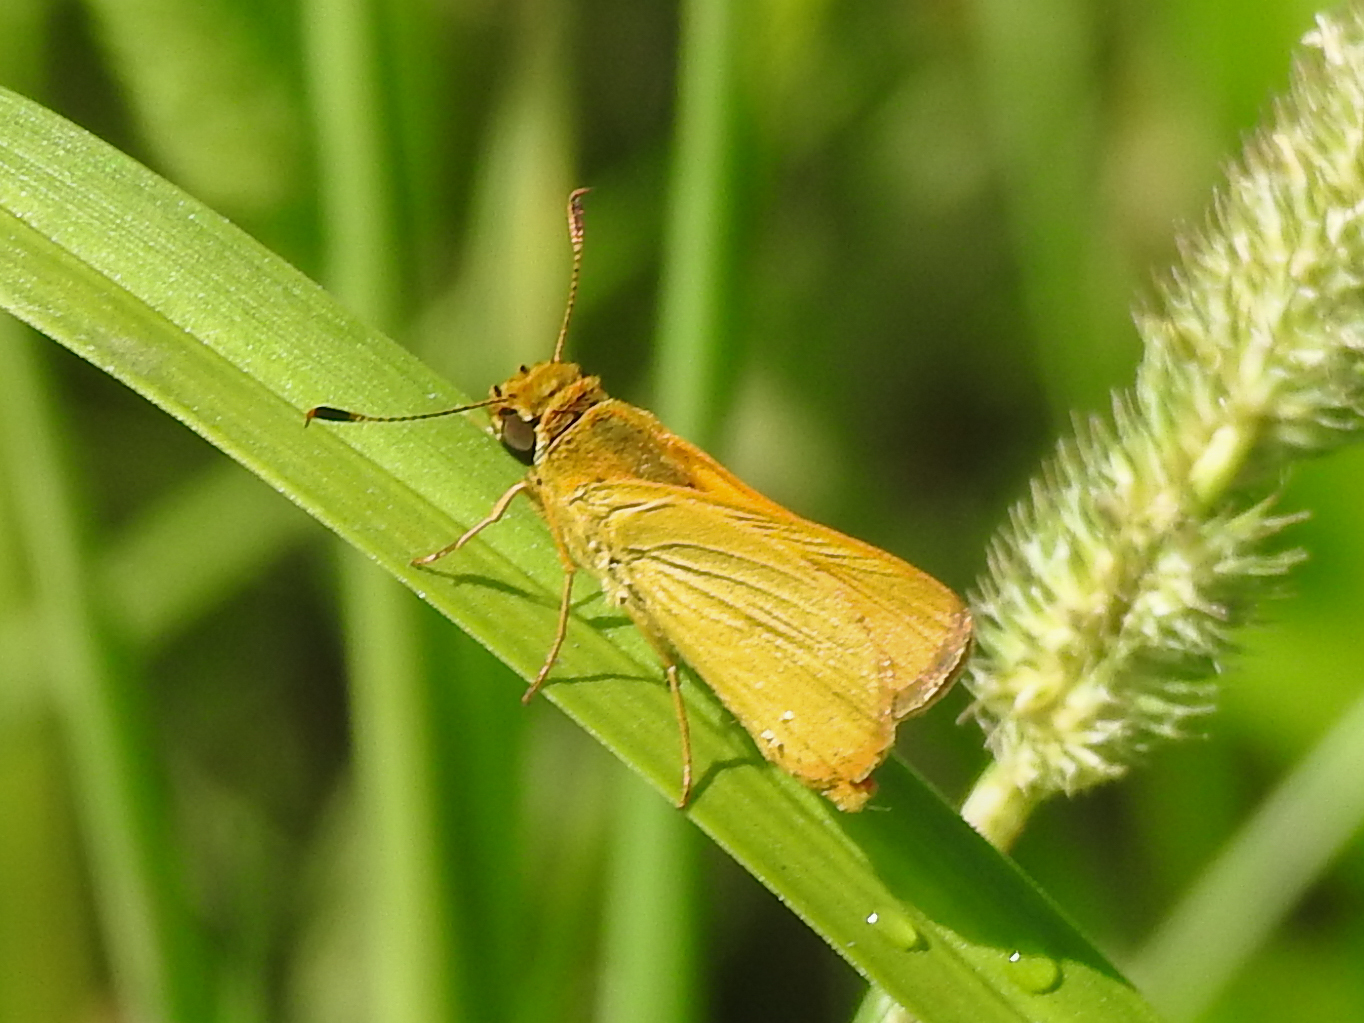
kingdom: Animalia
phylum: Arthropoda
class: Insecta
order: Lepidoptera
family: Hesperiidae
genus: Atrytone
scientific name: Atrytone delaware
